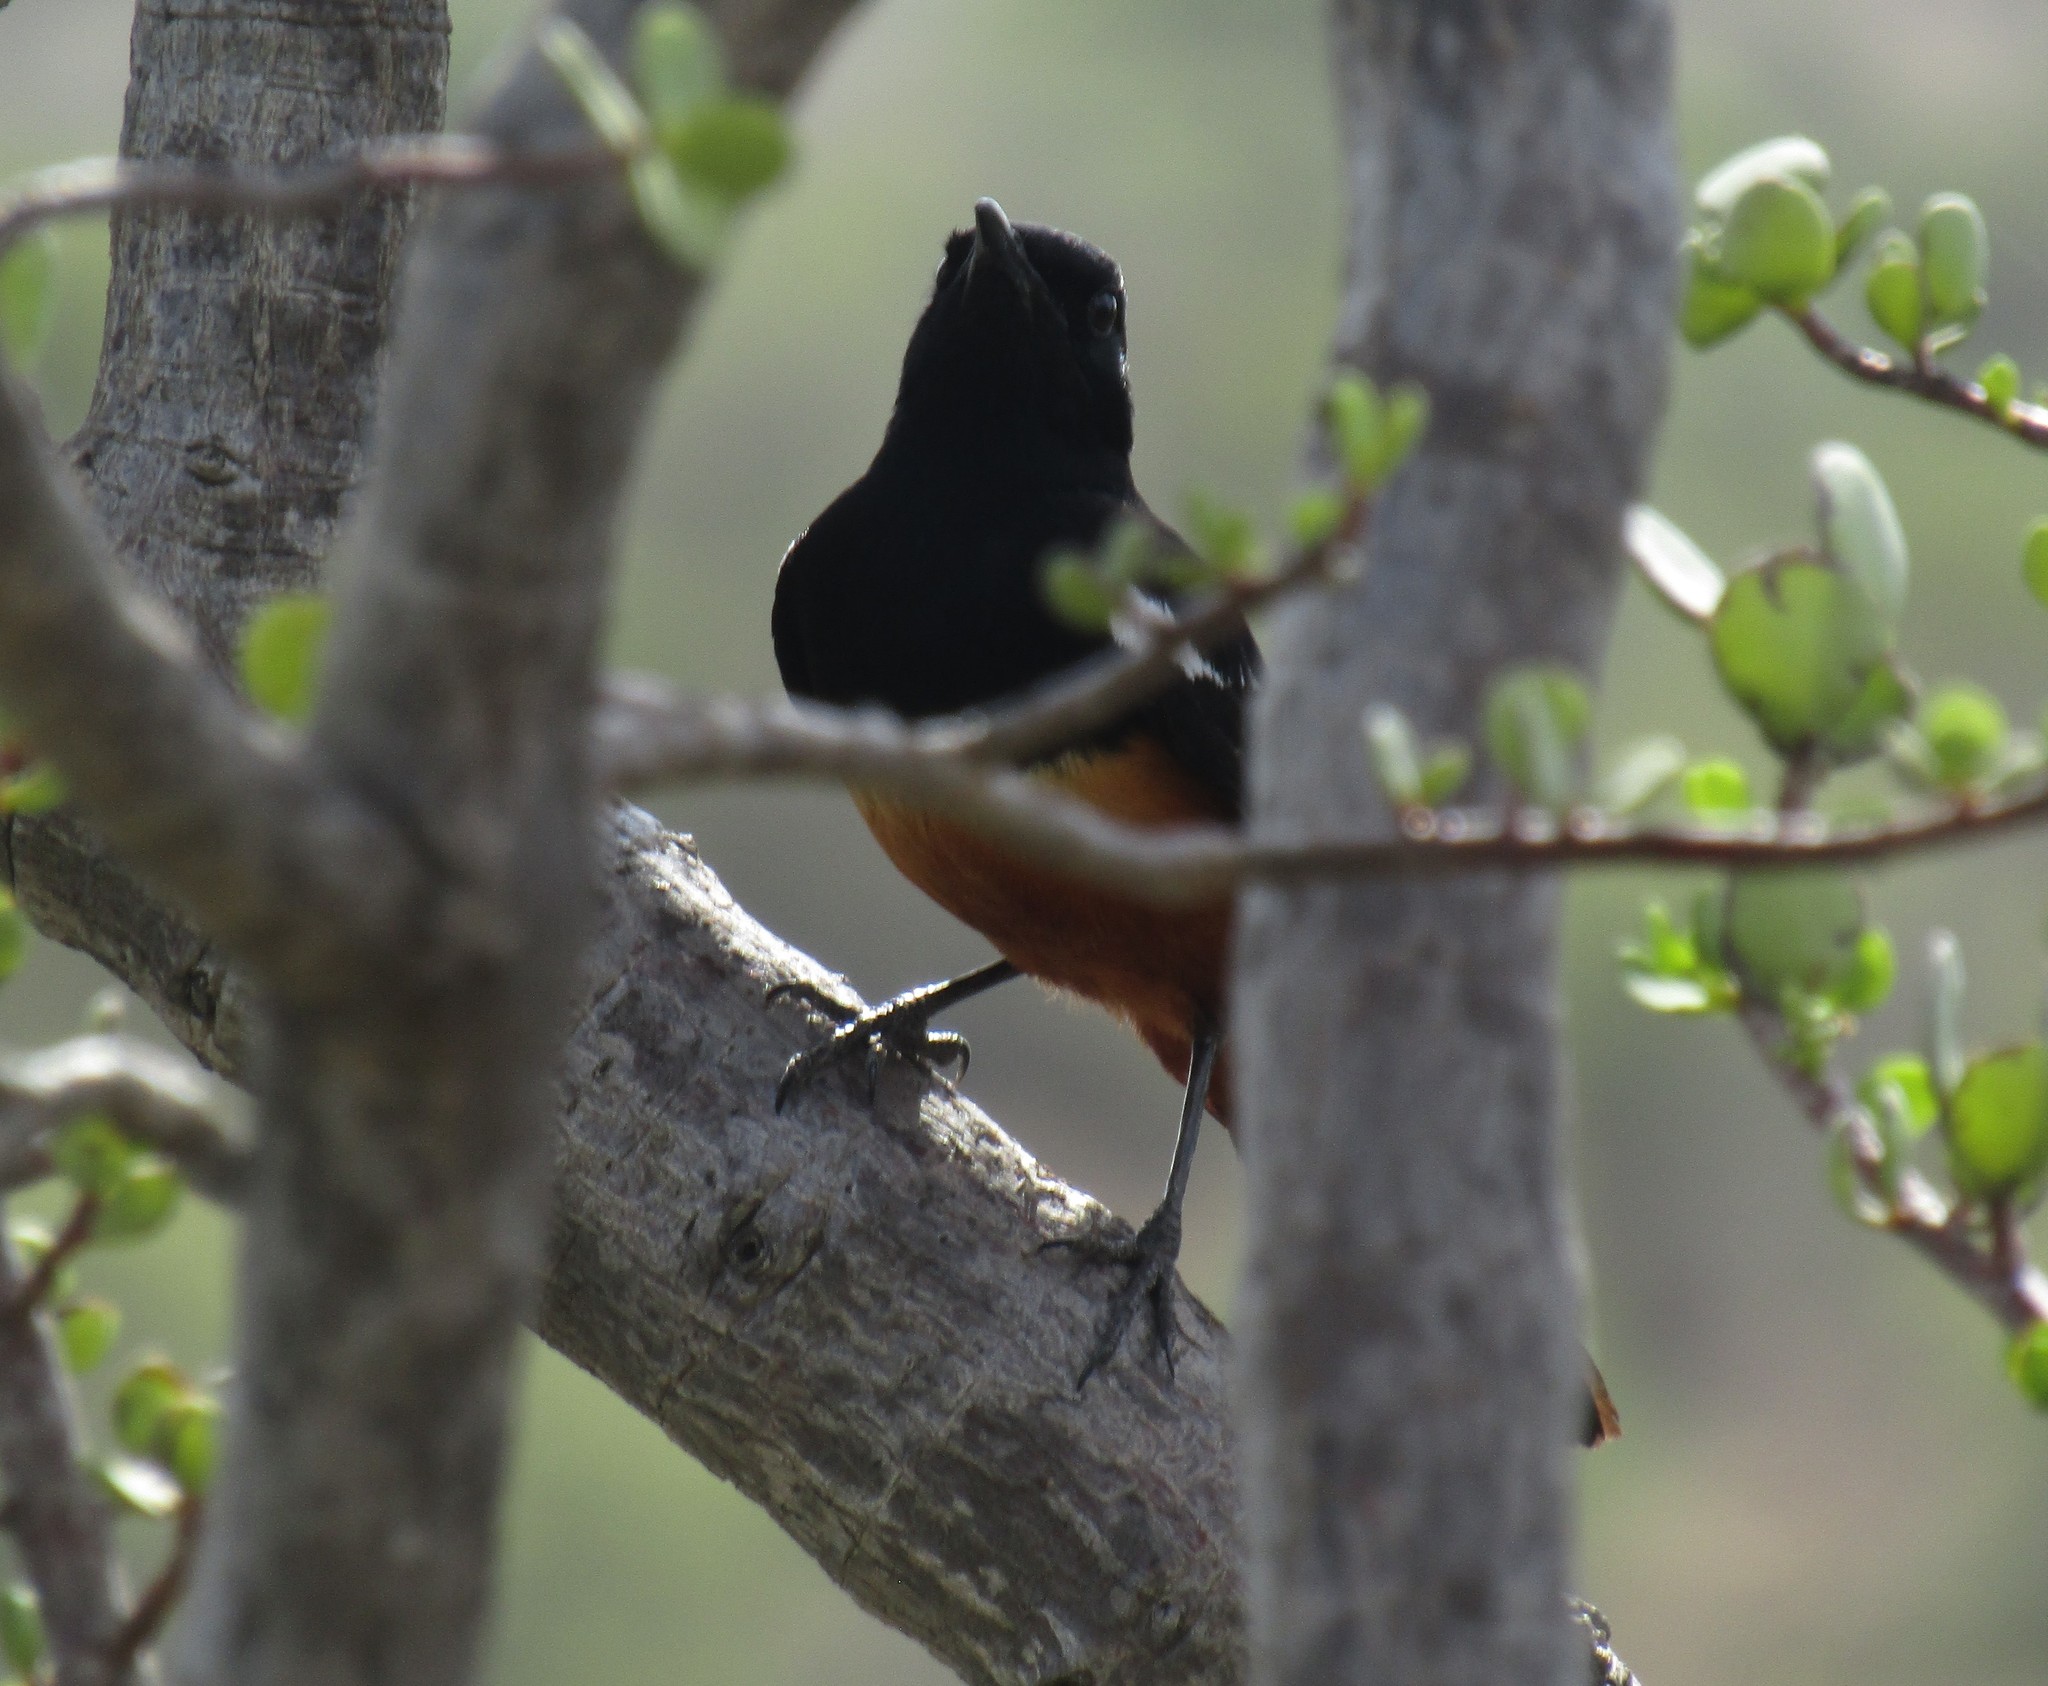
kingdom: Animalia
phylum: Chordata
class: Aves
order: Passeriformes
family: Muscicapidae
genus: Thamnolaea
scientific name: Thamnolaea cinnamomeiventris
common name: Mocking cliff chat
